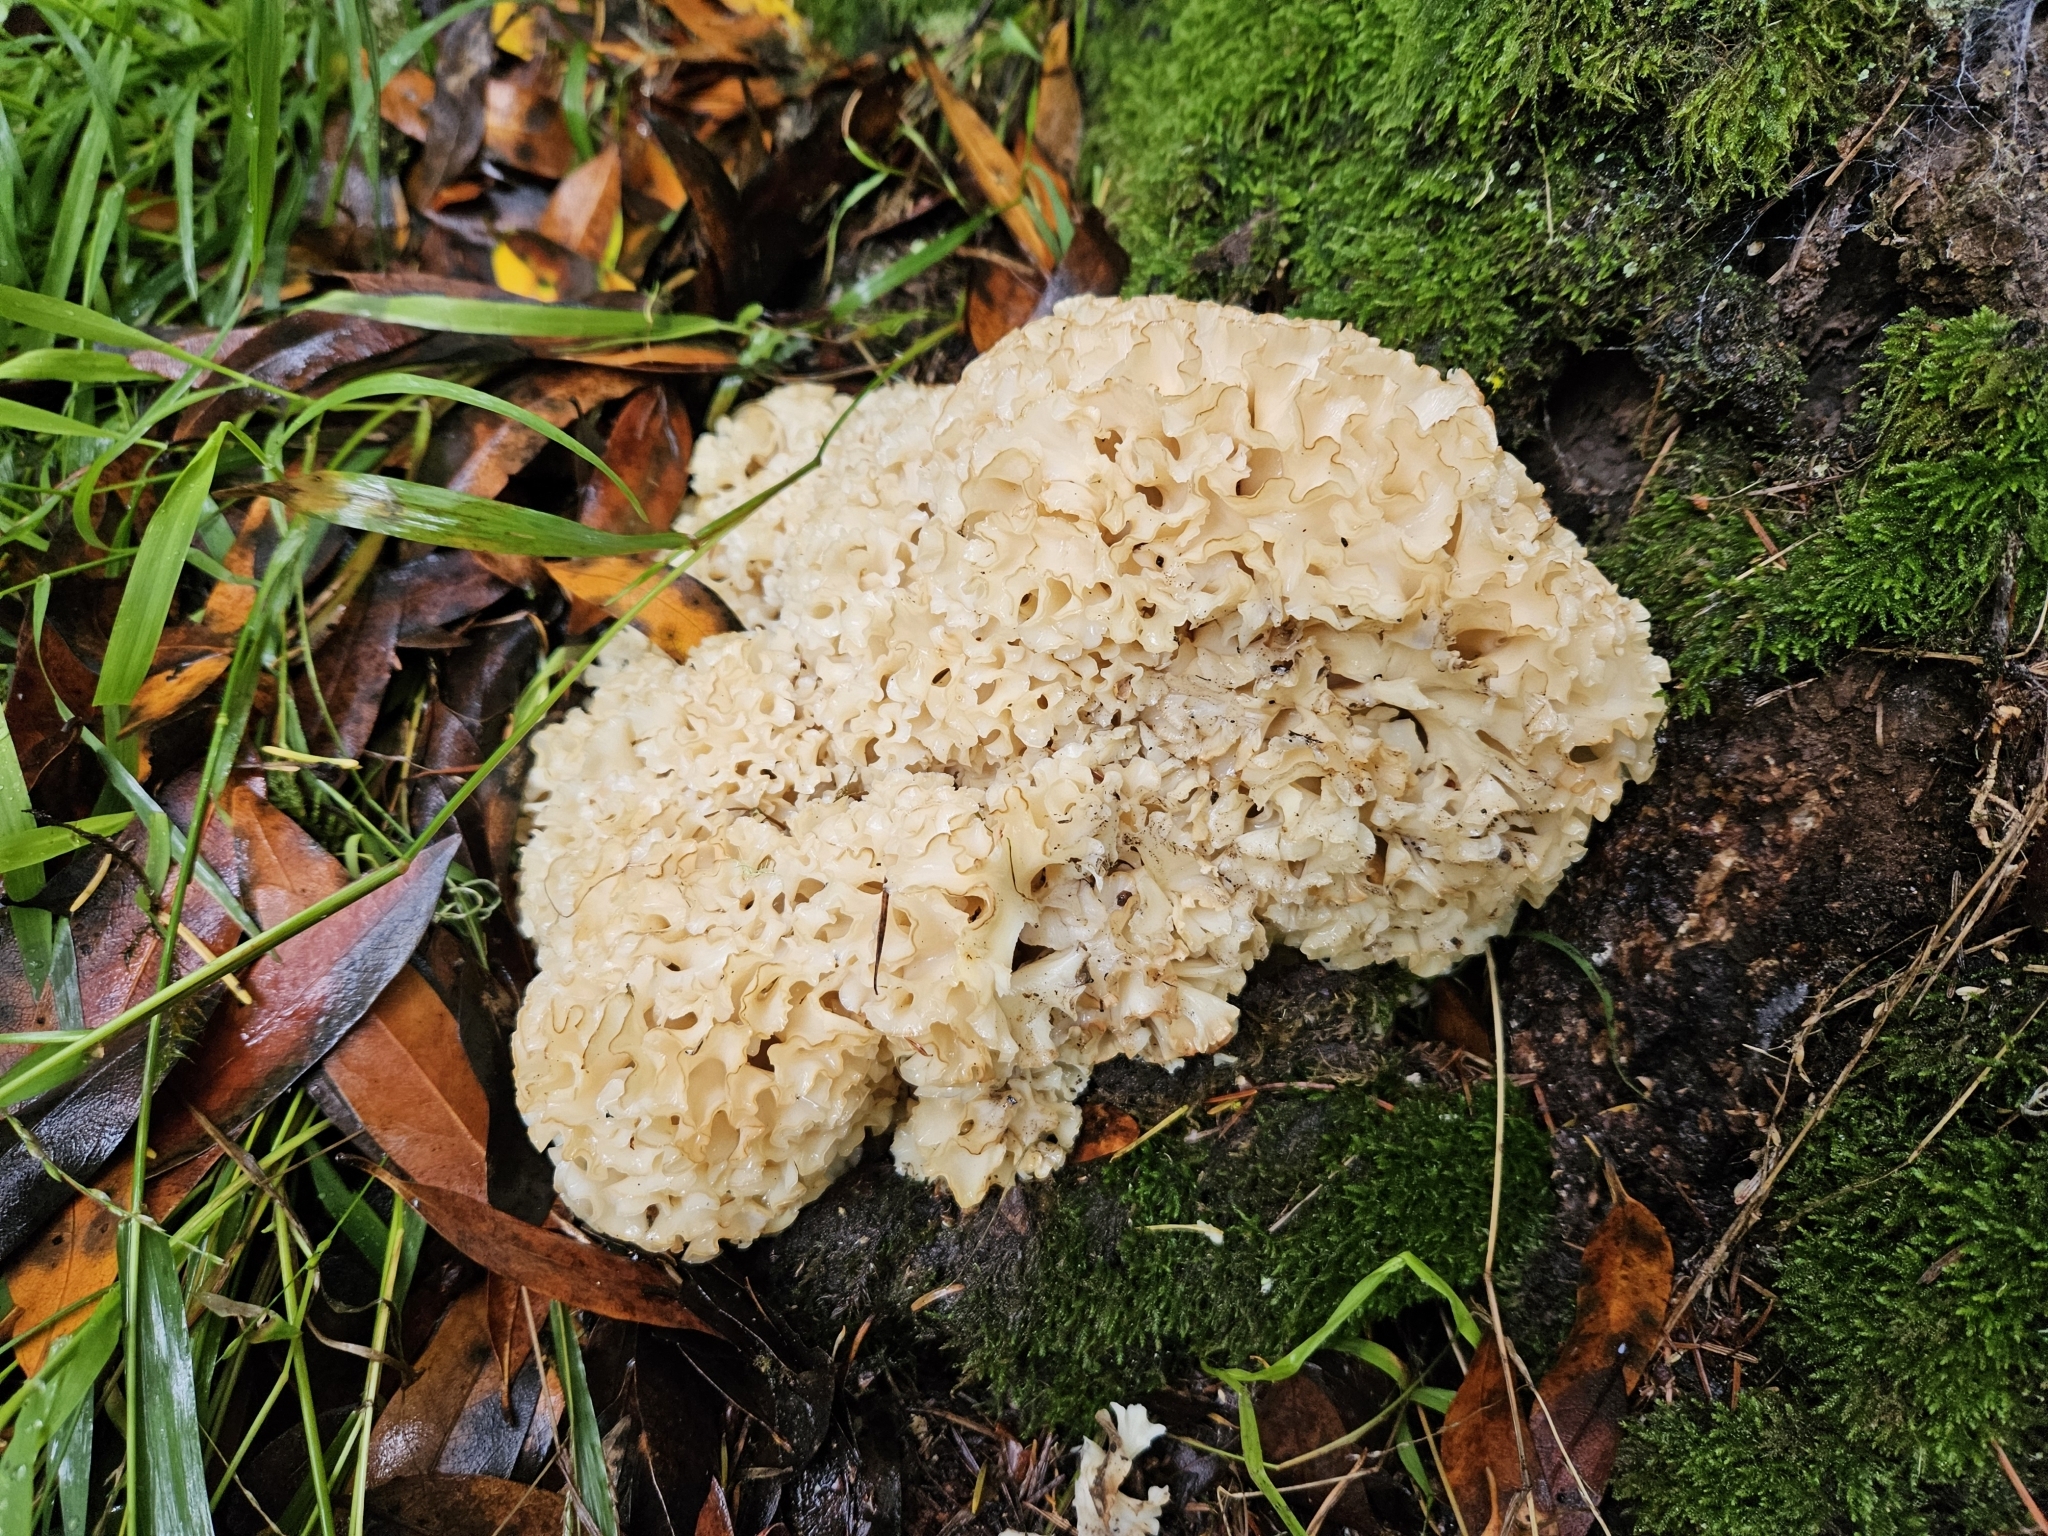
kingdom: Fungi
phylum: Basidiomycota
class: Agaricomycetes
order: Polyporales
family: Sparassidaceae
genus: Sparassis
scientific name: Sparassis radicata
